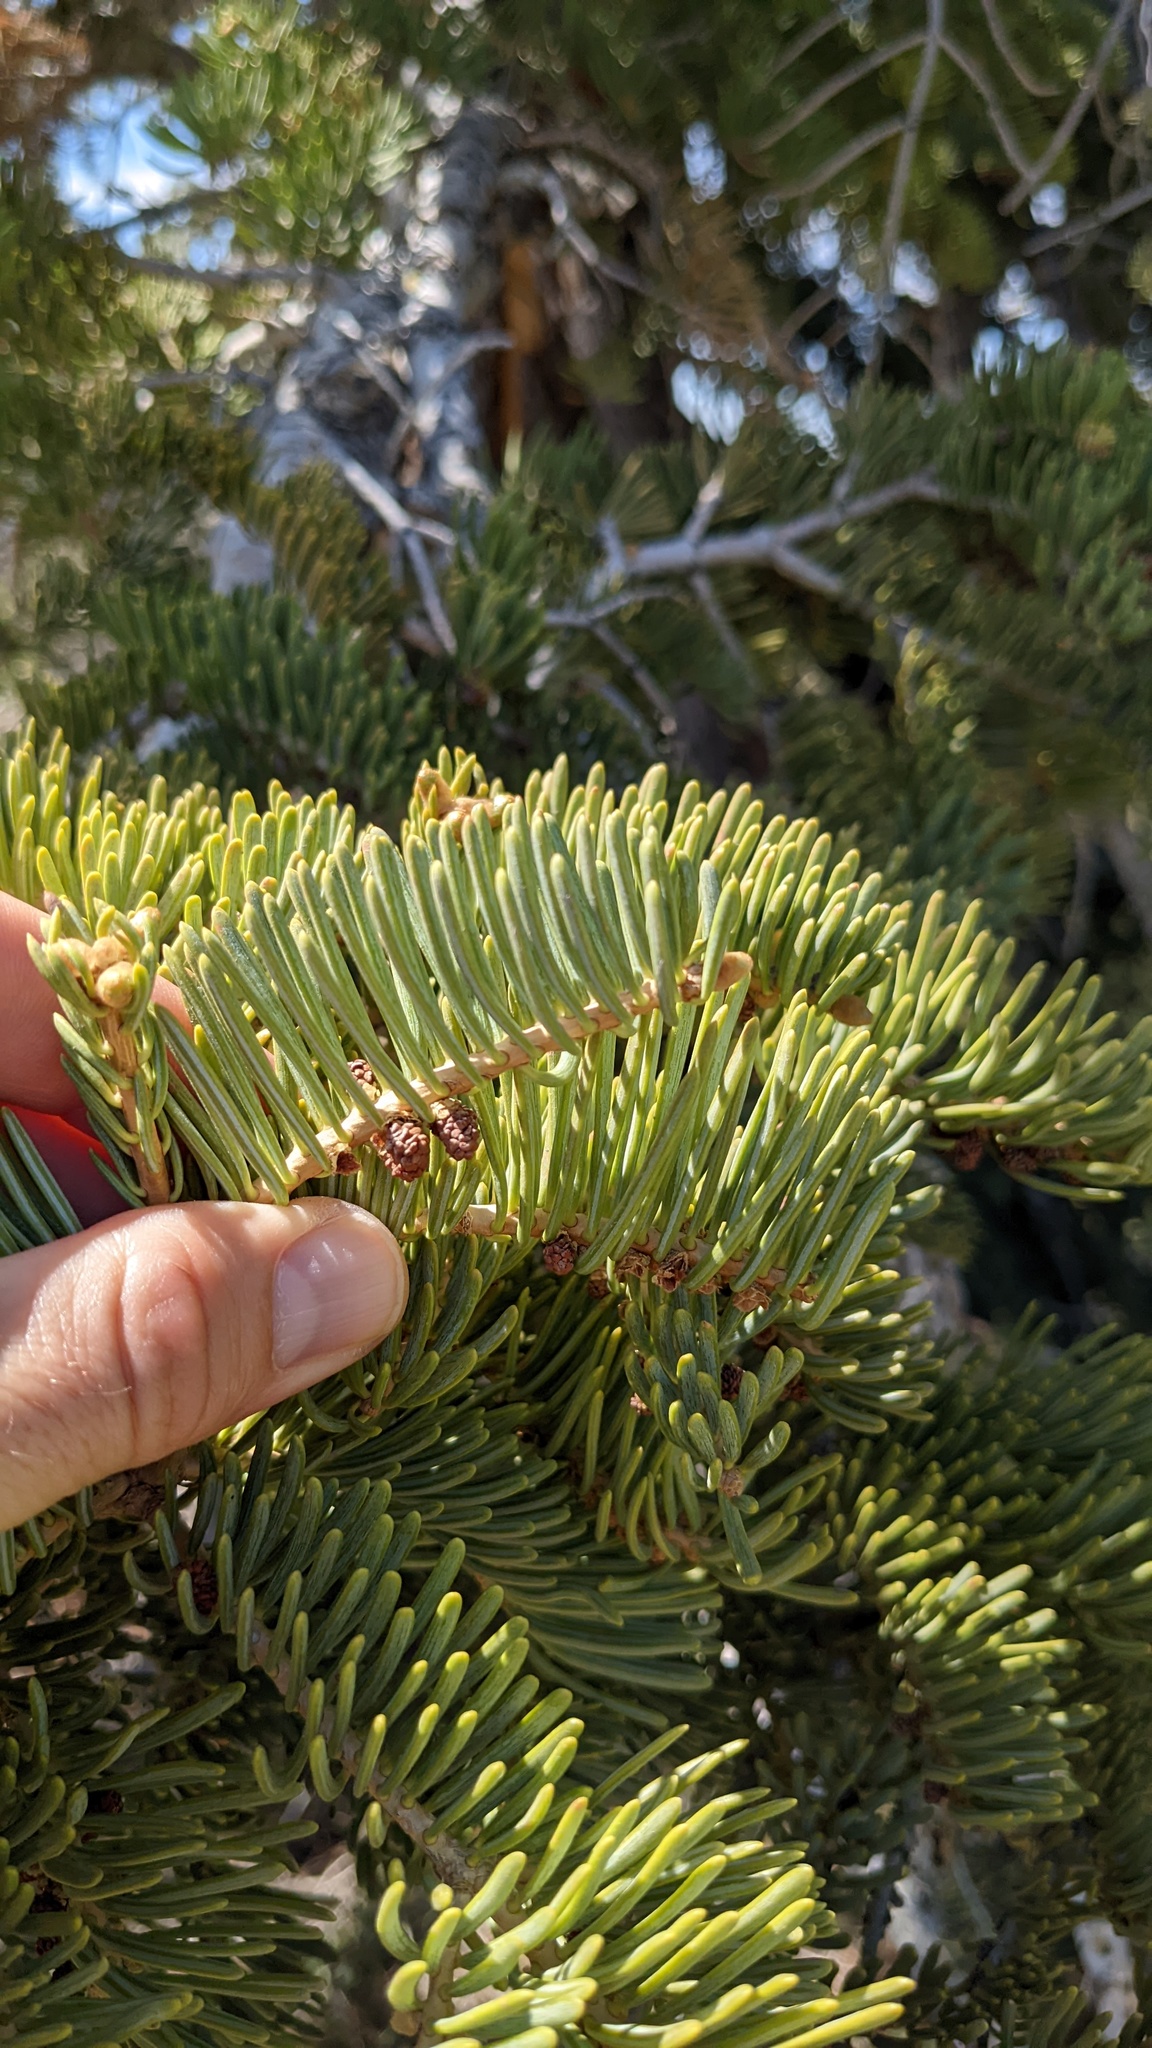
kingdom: Plantae
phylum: Tracheophyta
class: Pinopsida
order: Pinales
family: Pinaceae
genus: Abies
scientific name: Abies concolor
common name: Colorado fir
